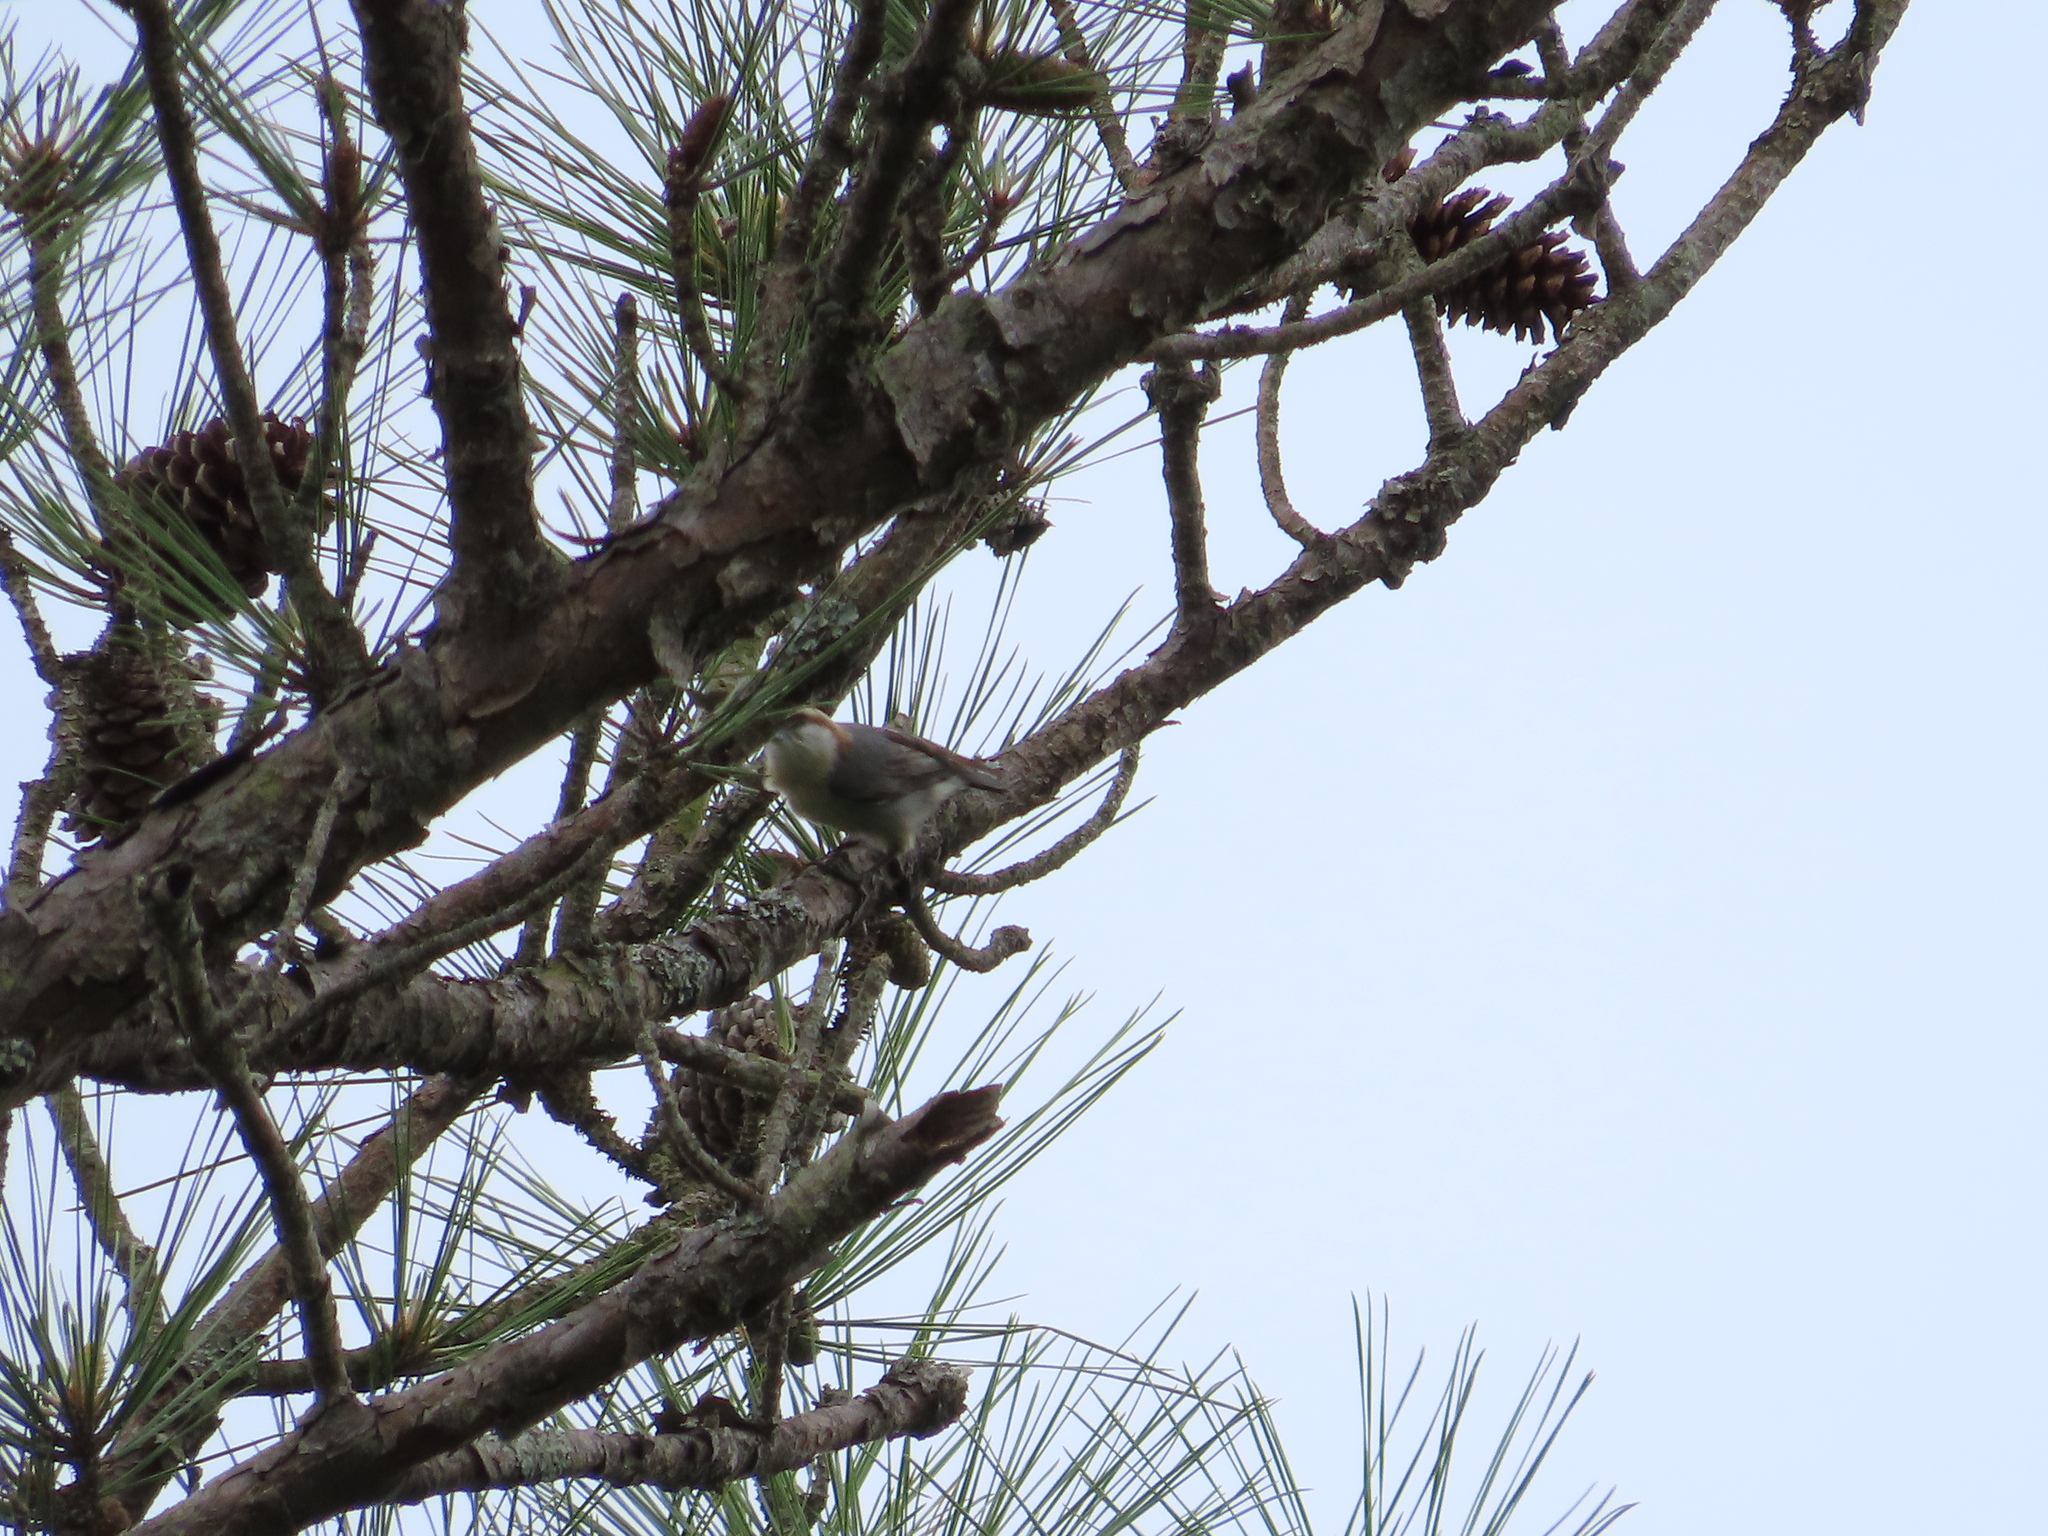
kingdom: Animalia
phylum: Chordata
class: Aves
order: Passeriformes
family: Sittidae
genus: Sitta
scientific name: Sitta pusilla
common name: Brown-headed nuthatch
